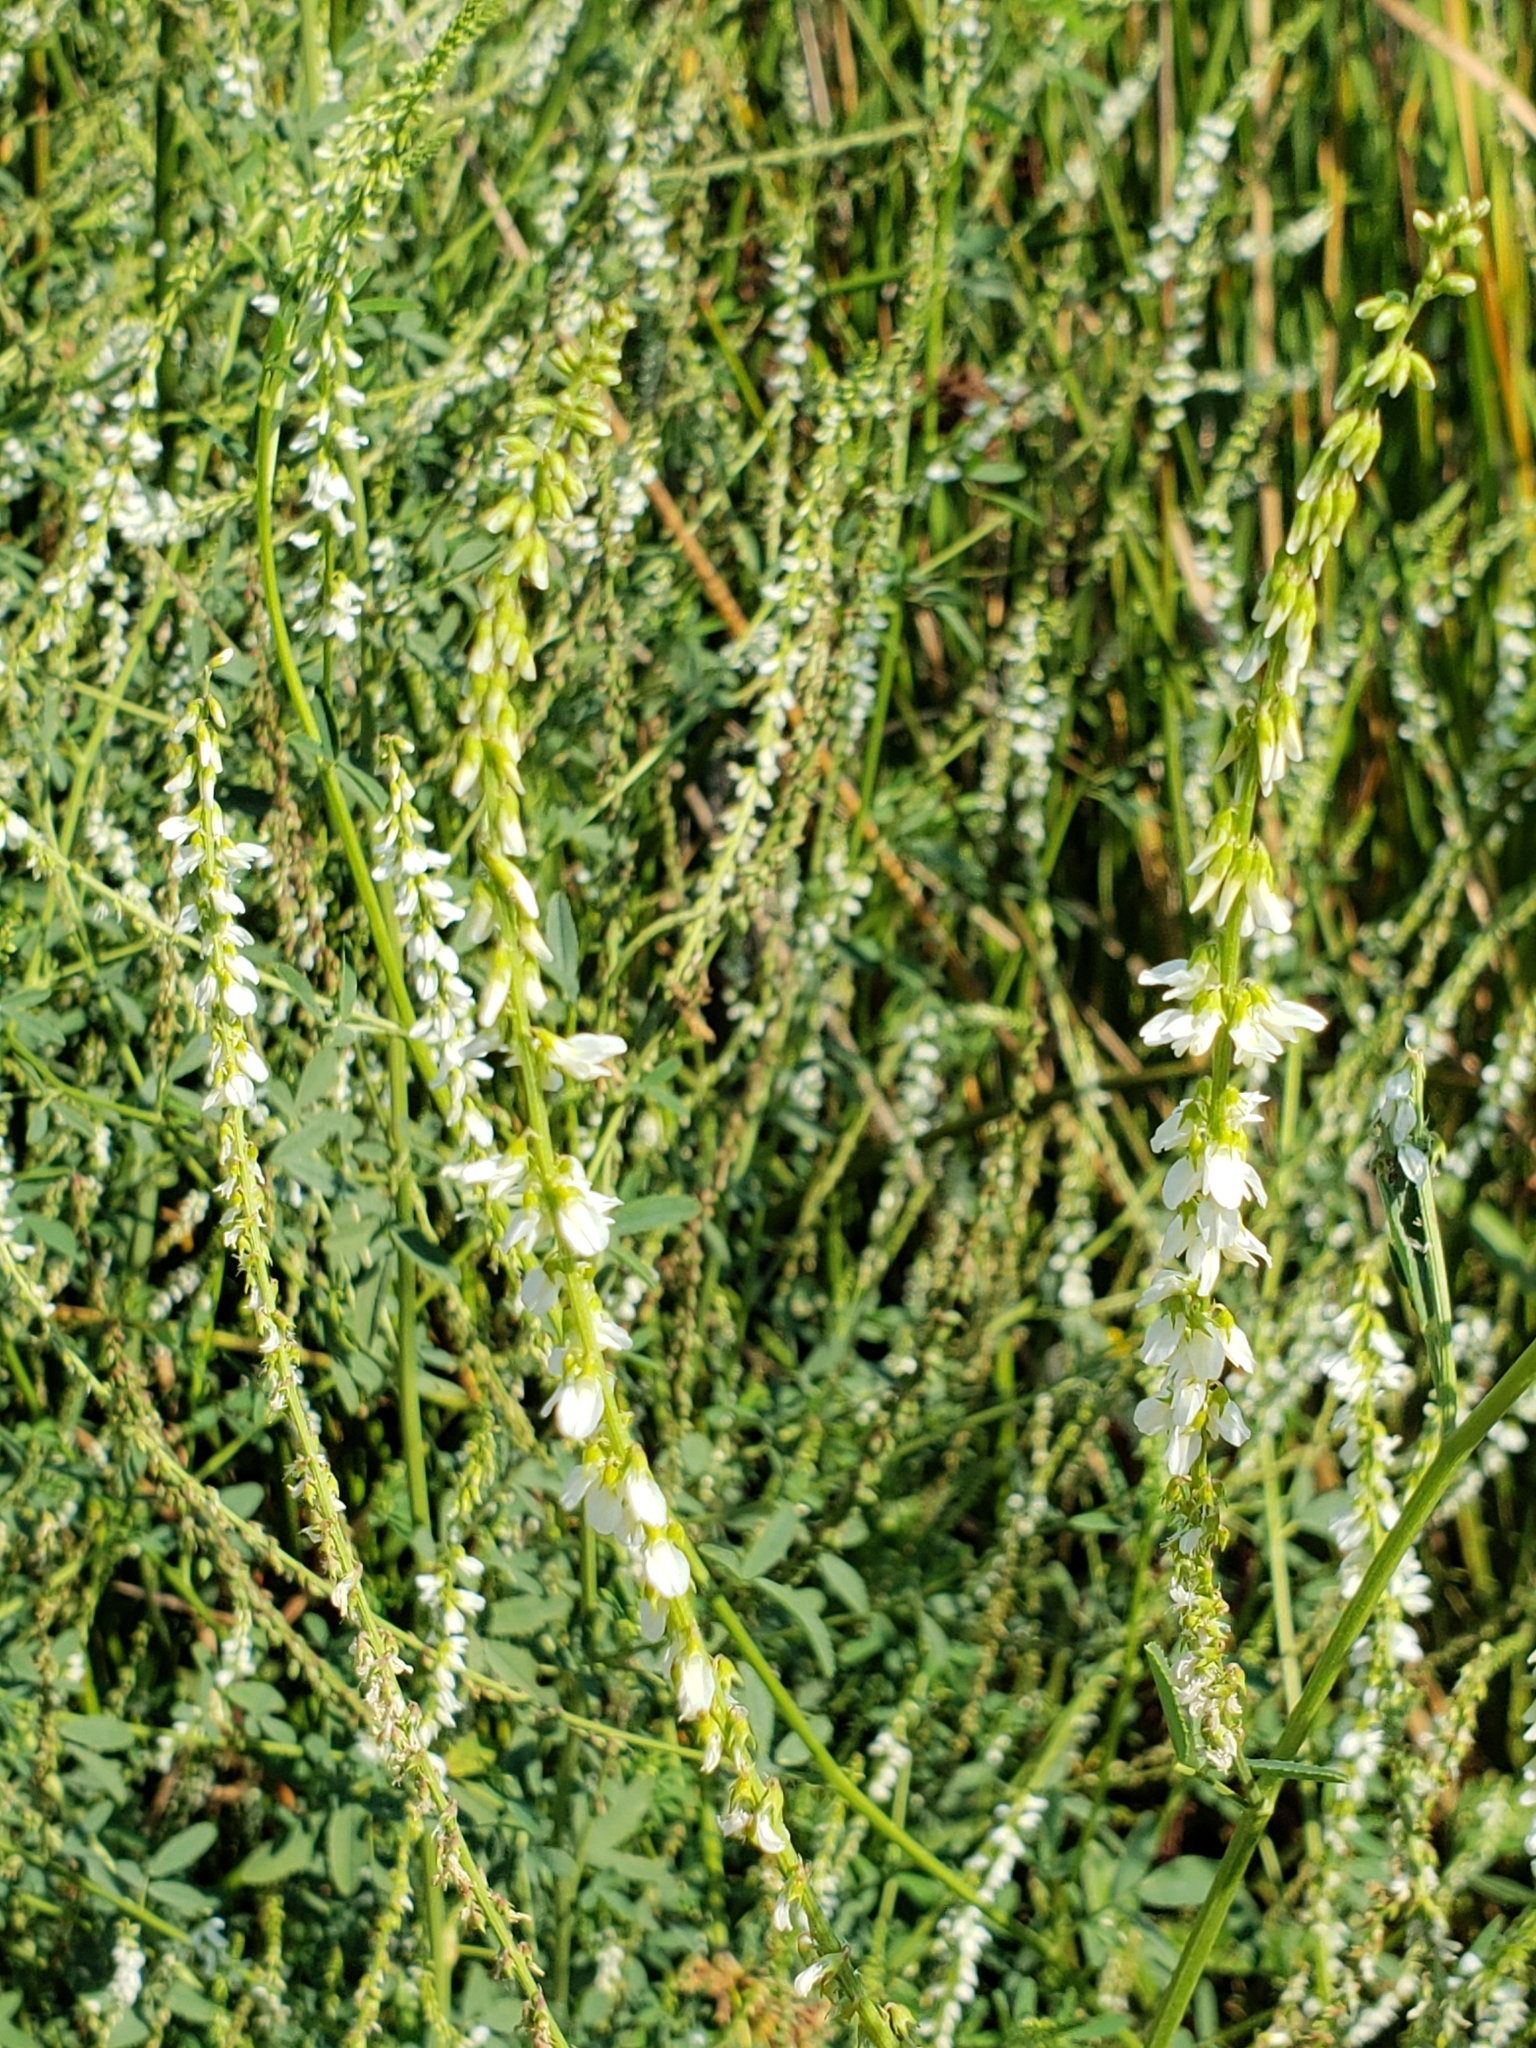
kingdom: Plantae
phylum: Tracheophyta
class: Magnoliopsida
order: Fabales
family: Fabaceae
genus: Melilotus
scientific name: Melilotus albus
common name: White melilot
